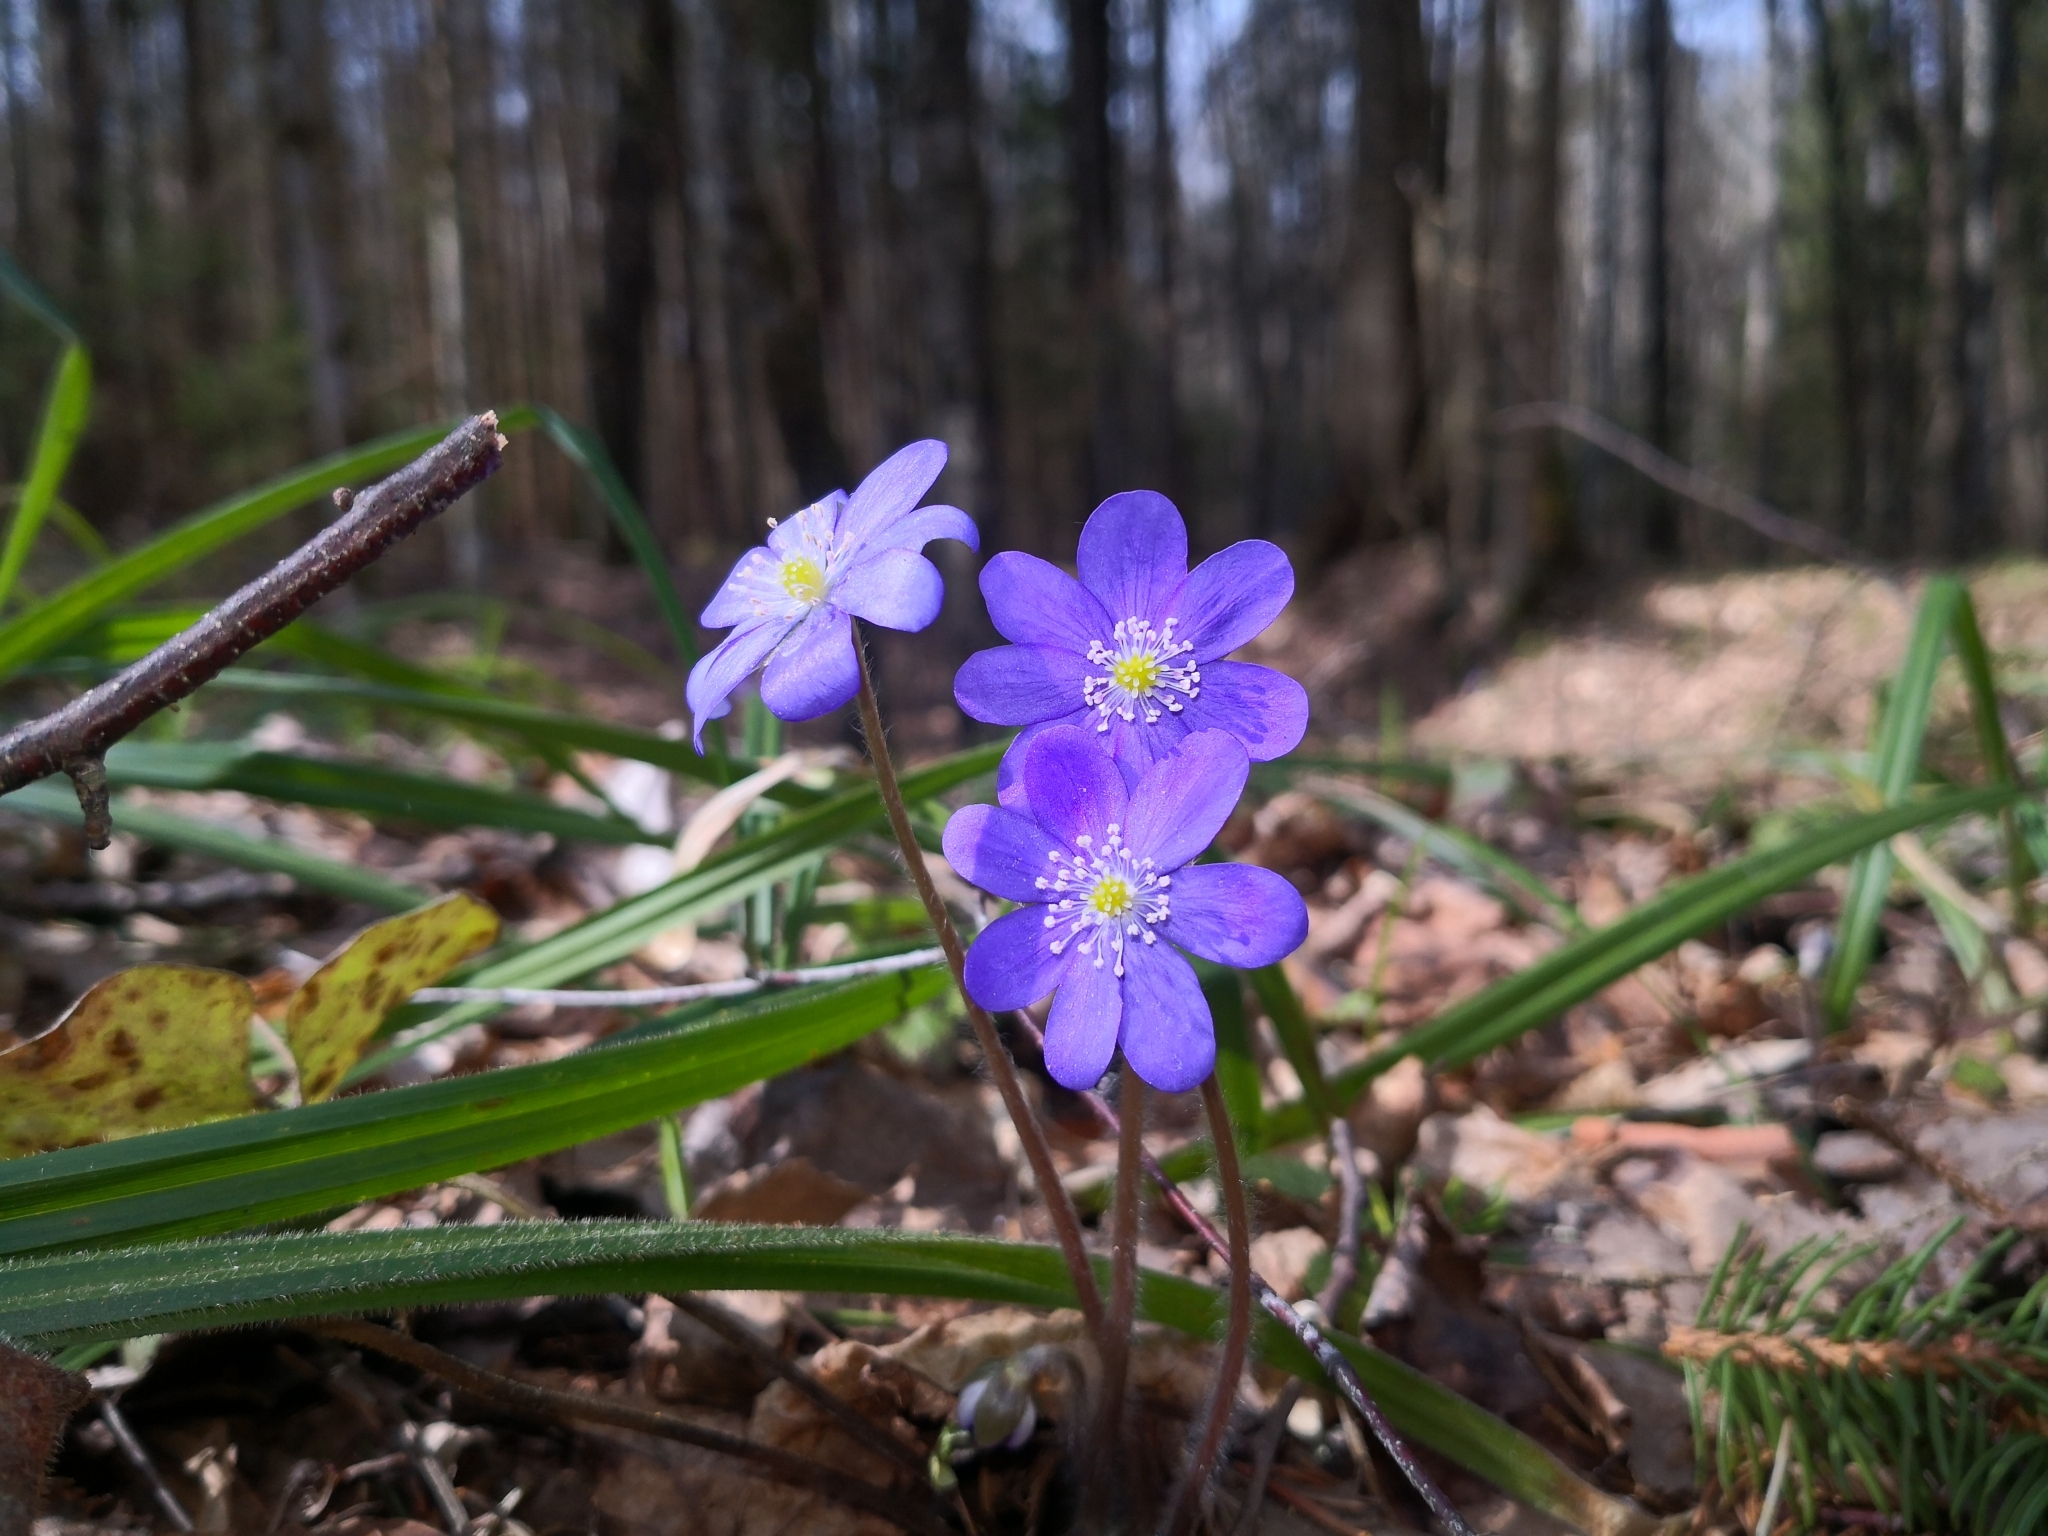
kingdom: Plantae
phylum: Tracheophyta
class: Magnoliopsida
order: Ranunculales
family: Ranunculaceae
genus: Hepatica
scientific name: Hepatica nobilis
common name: Liverleaf
